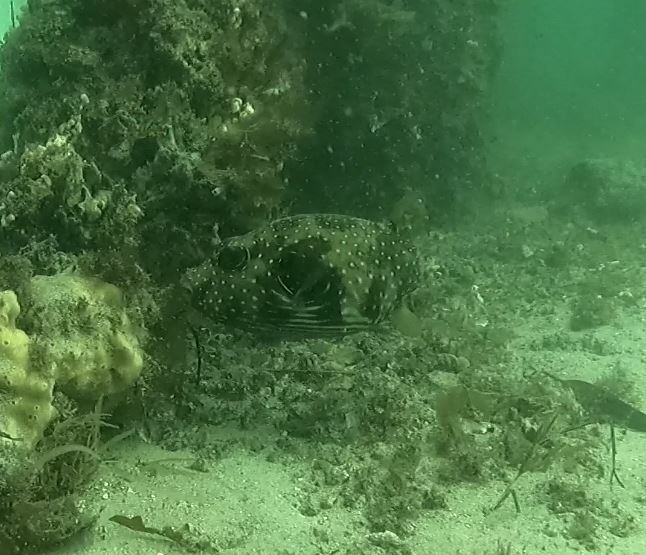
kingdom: Animalia
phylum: Chordata
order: Tetraodontiformes
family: Tetraodontidae
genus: Arothron
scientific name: Arothron hispidus
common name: Stripebelly puffer
